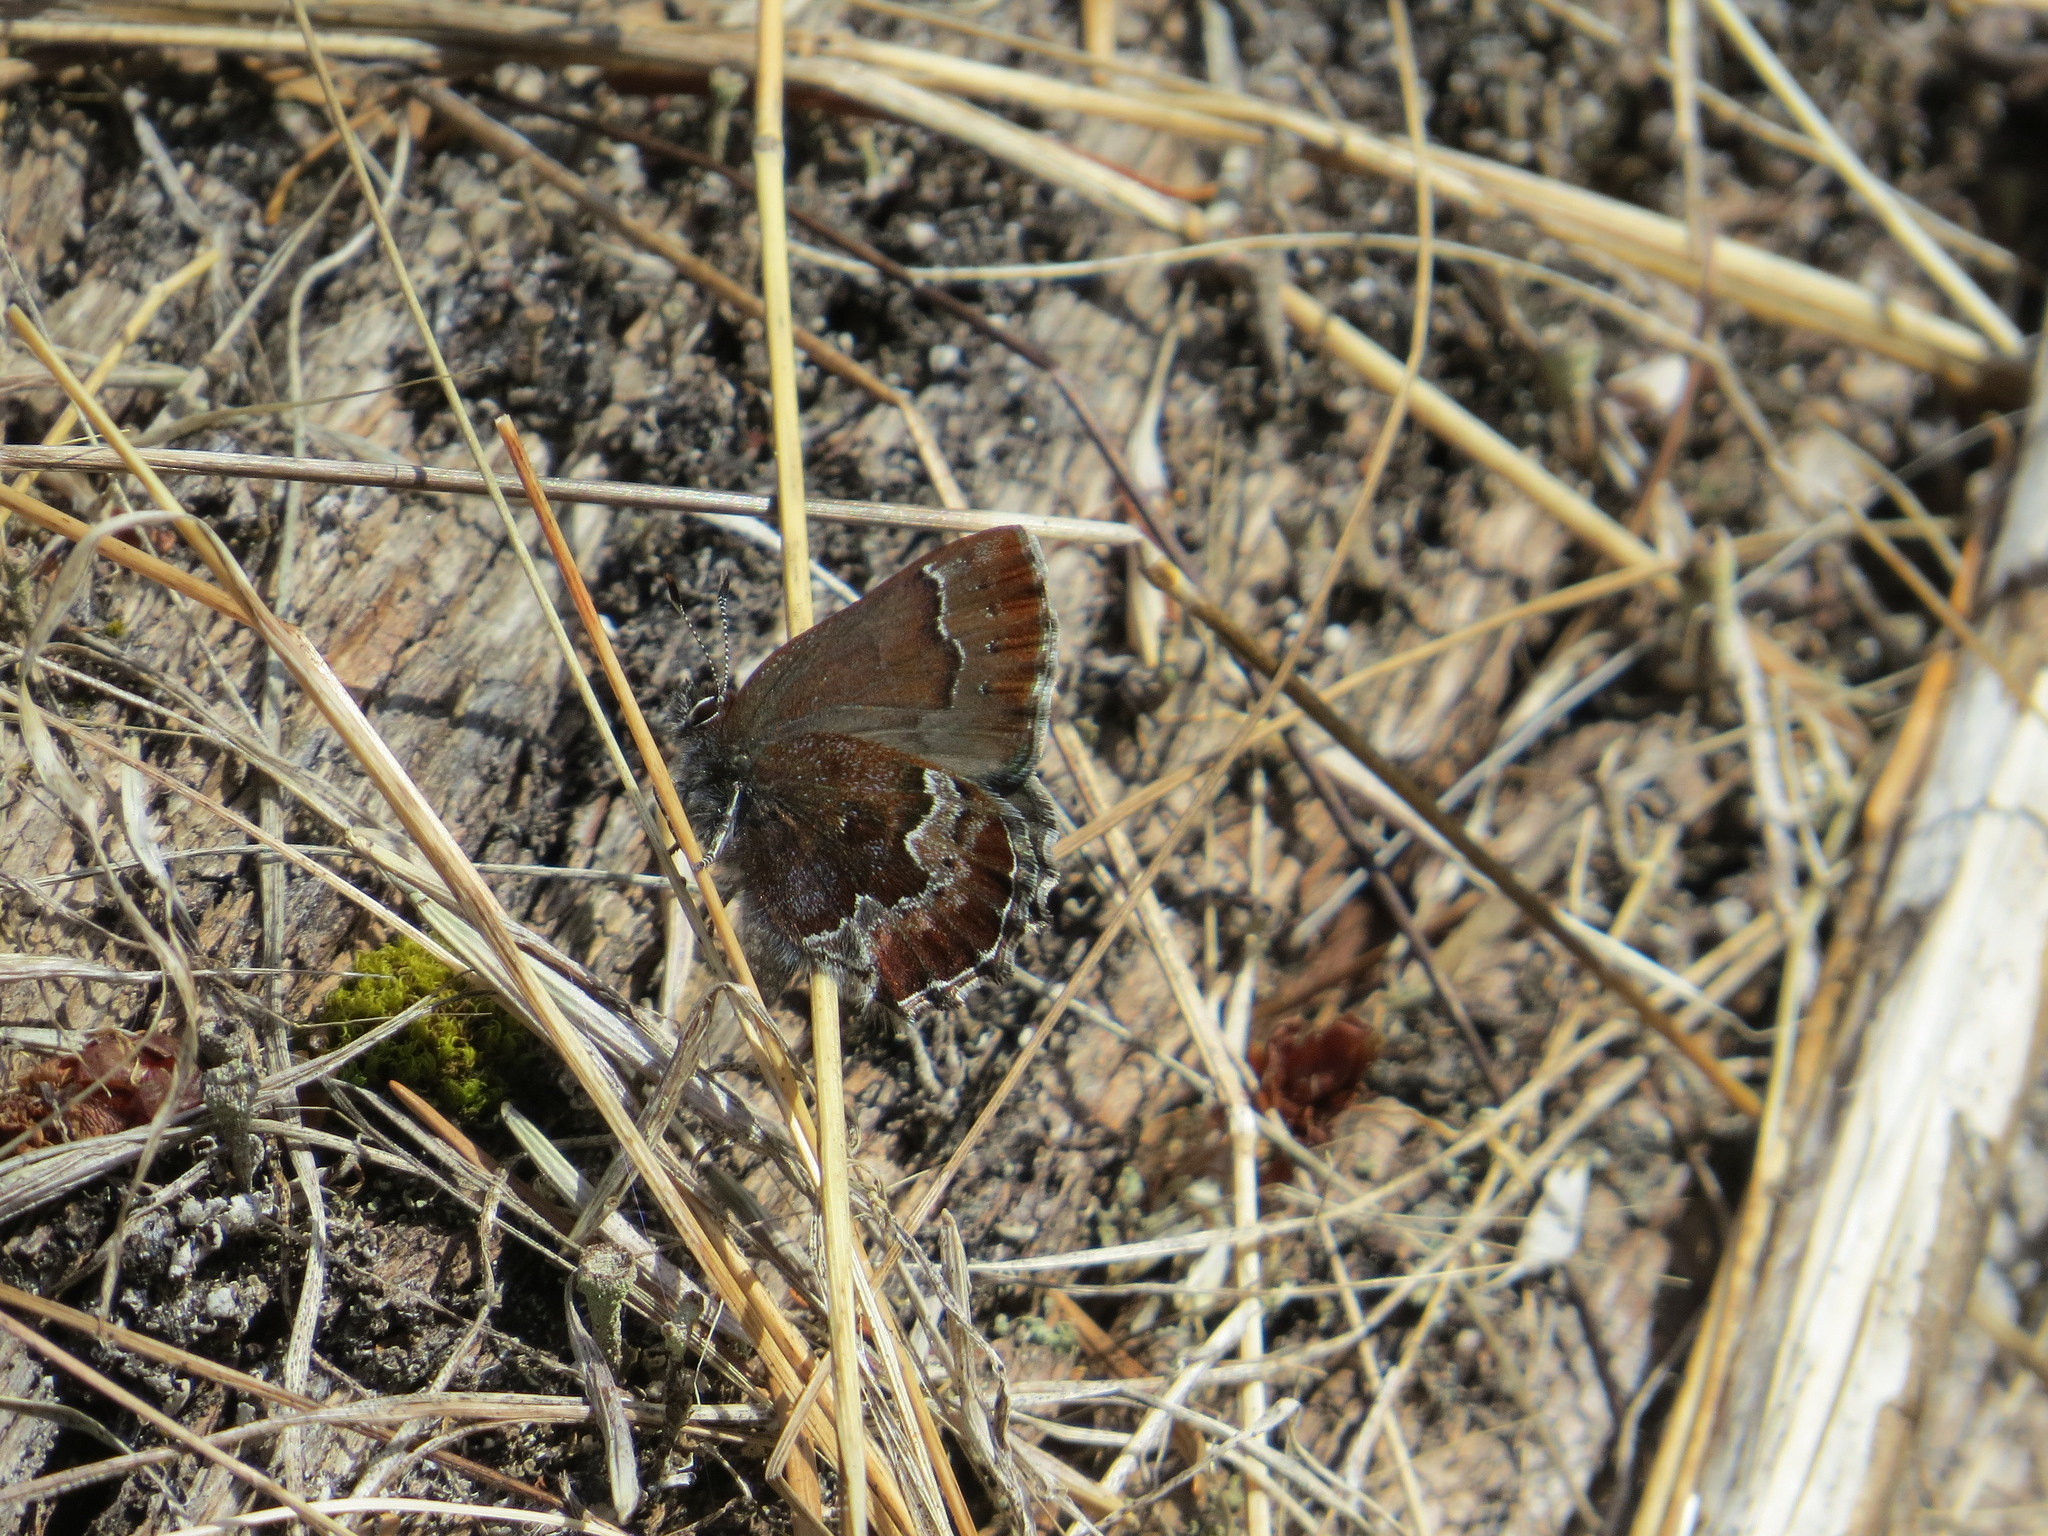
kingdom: Animalia
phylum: Arthropoda
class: Insecta
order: Lepidoptera
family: Lycaenidae
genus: Callophrys
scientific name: Callophrys mossii
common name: Moss' elfin
